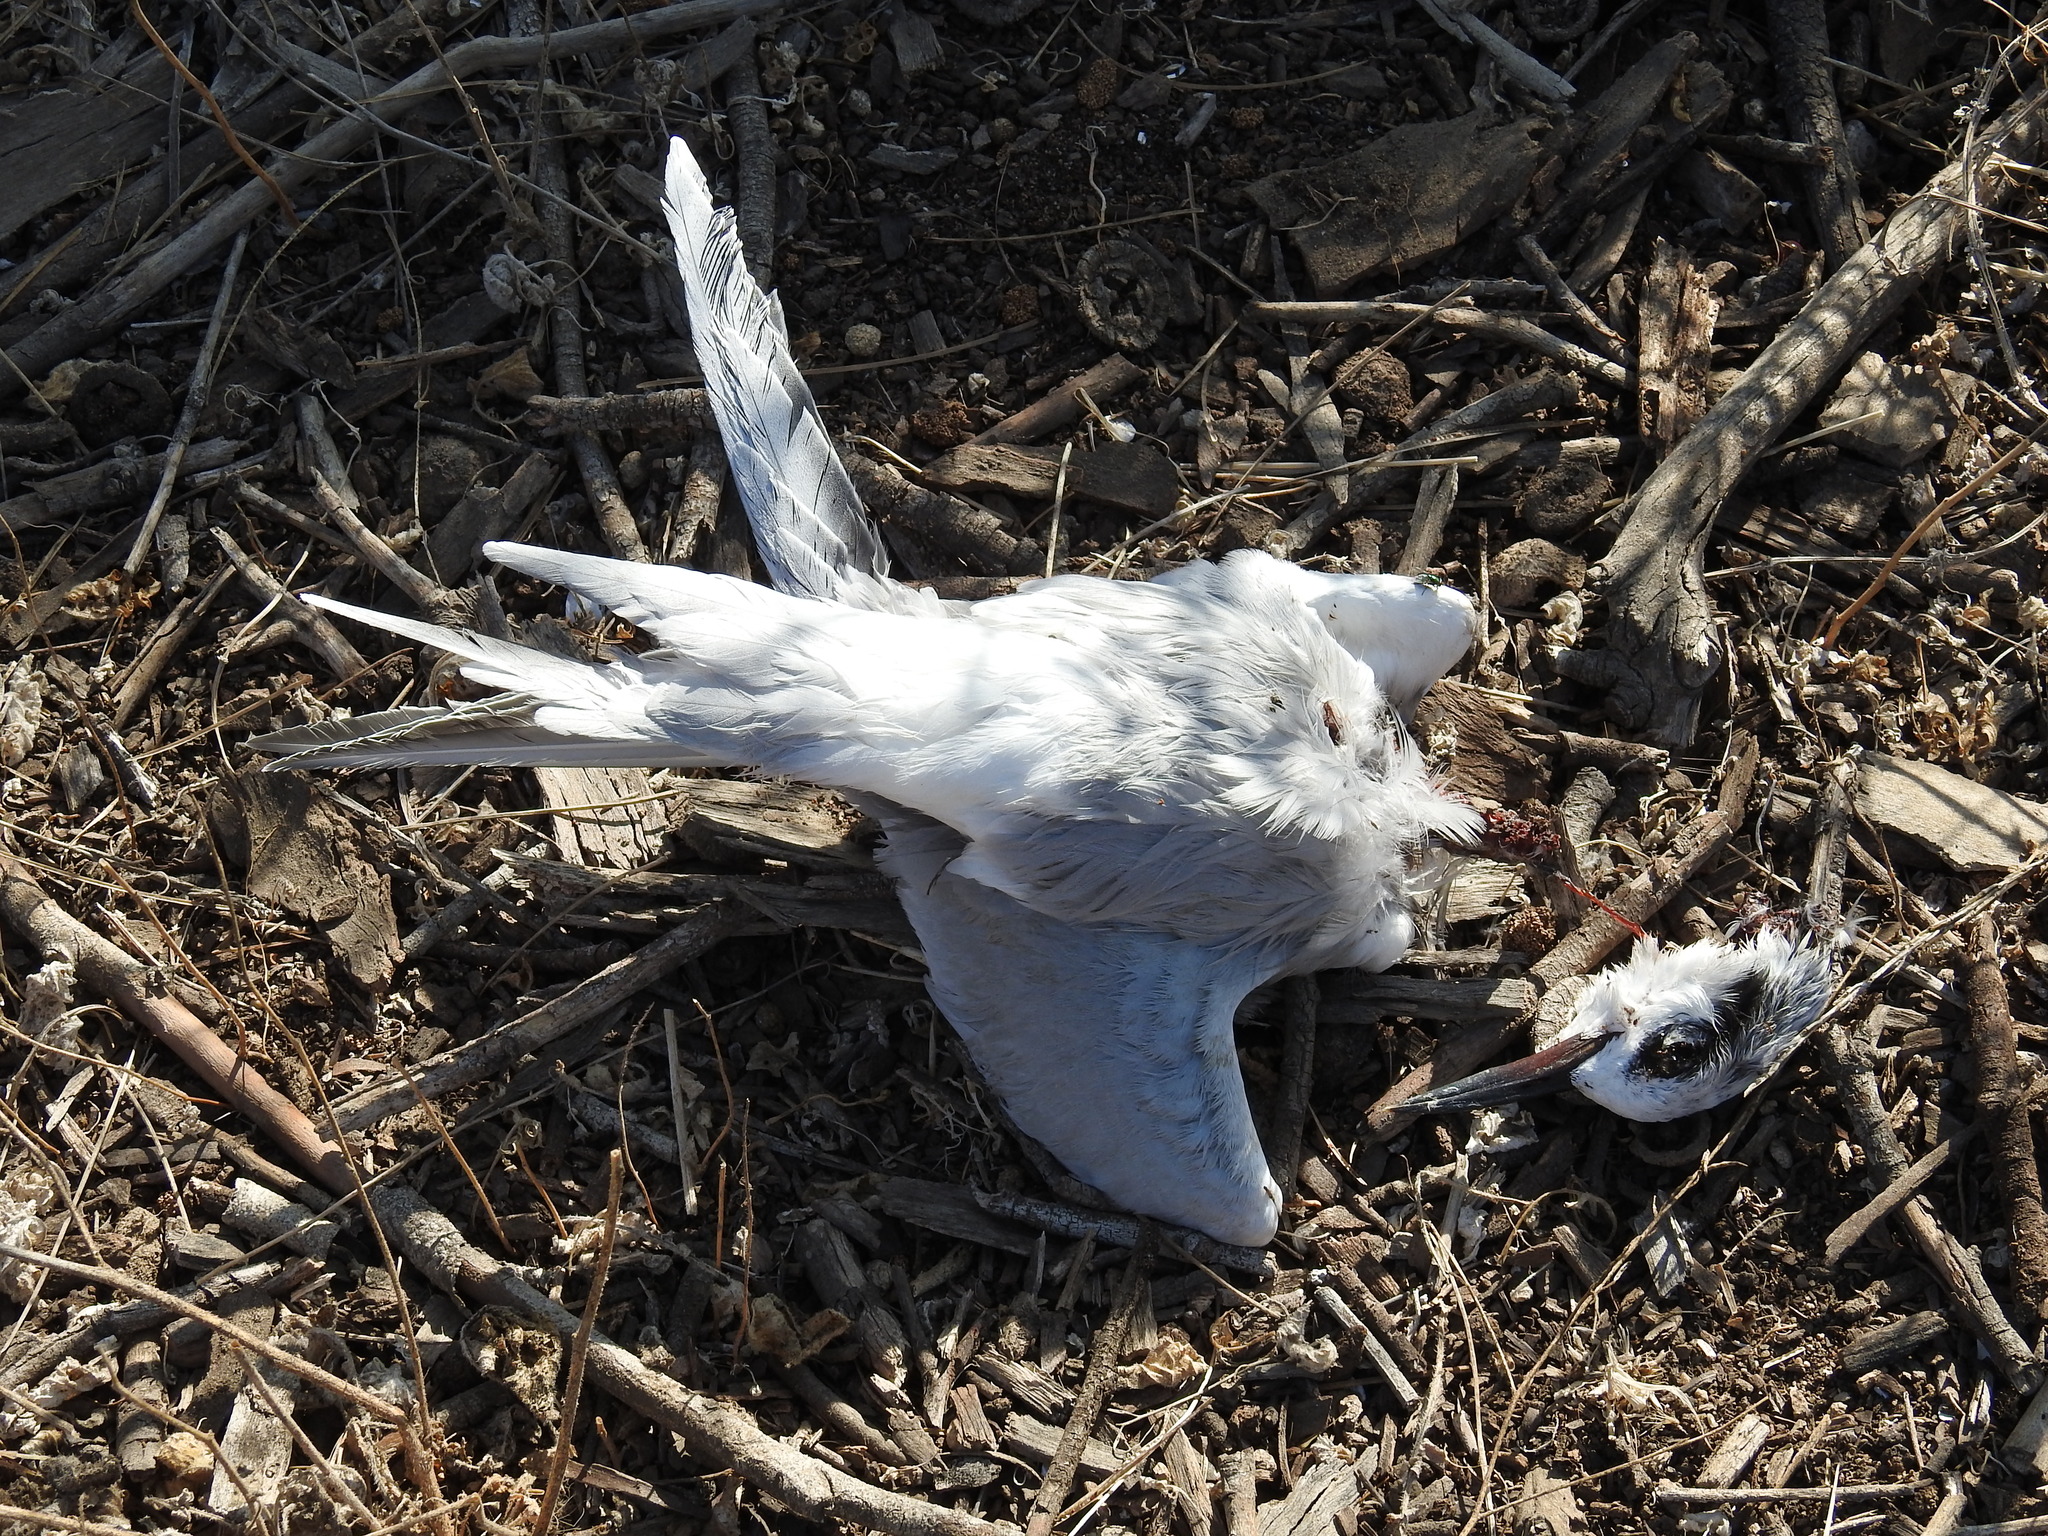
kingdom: Animalia
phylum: Chordata
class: Aves
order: Charadriiformes
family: Laridae
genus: Sterna
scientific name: Sterna forsteri
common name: Forster's tern
